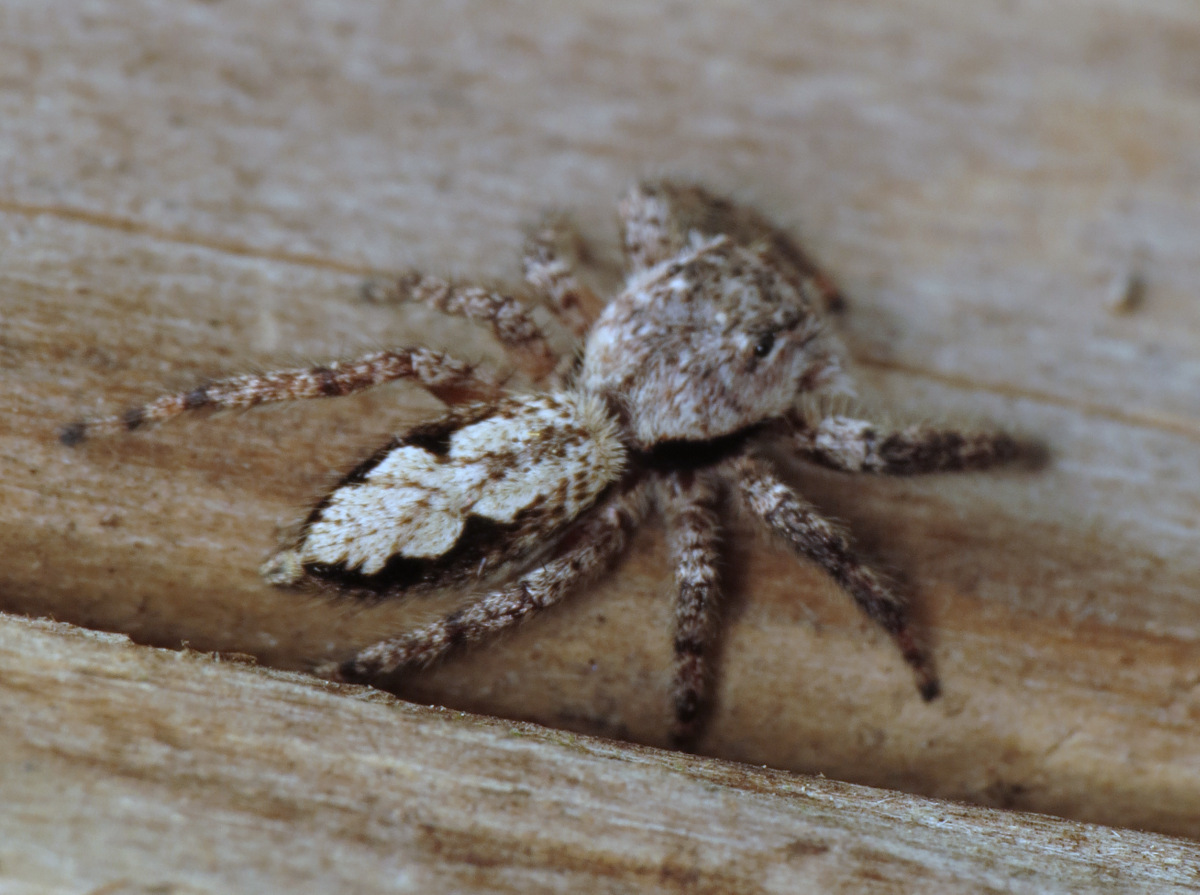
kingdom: Animalia
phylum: Arthropoda
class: Arachnida
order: Araneae
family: Salticidae
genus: Platycryptus
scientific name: Platycryptus undatus
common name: Tan jumping spider
